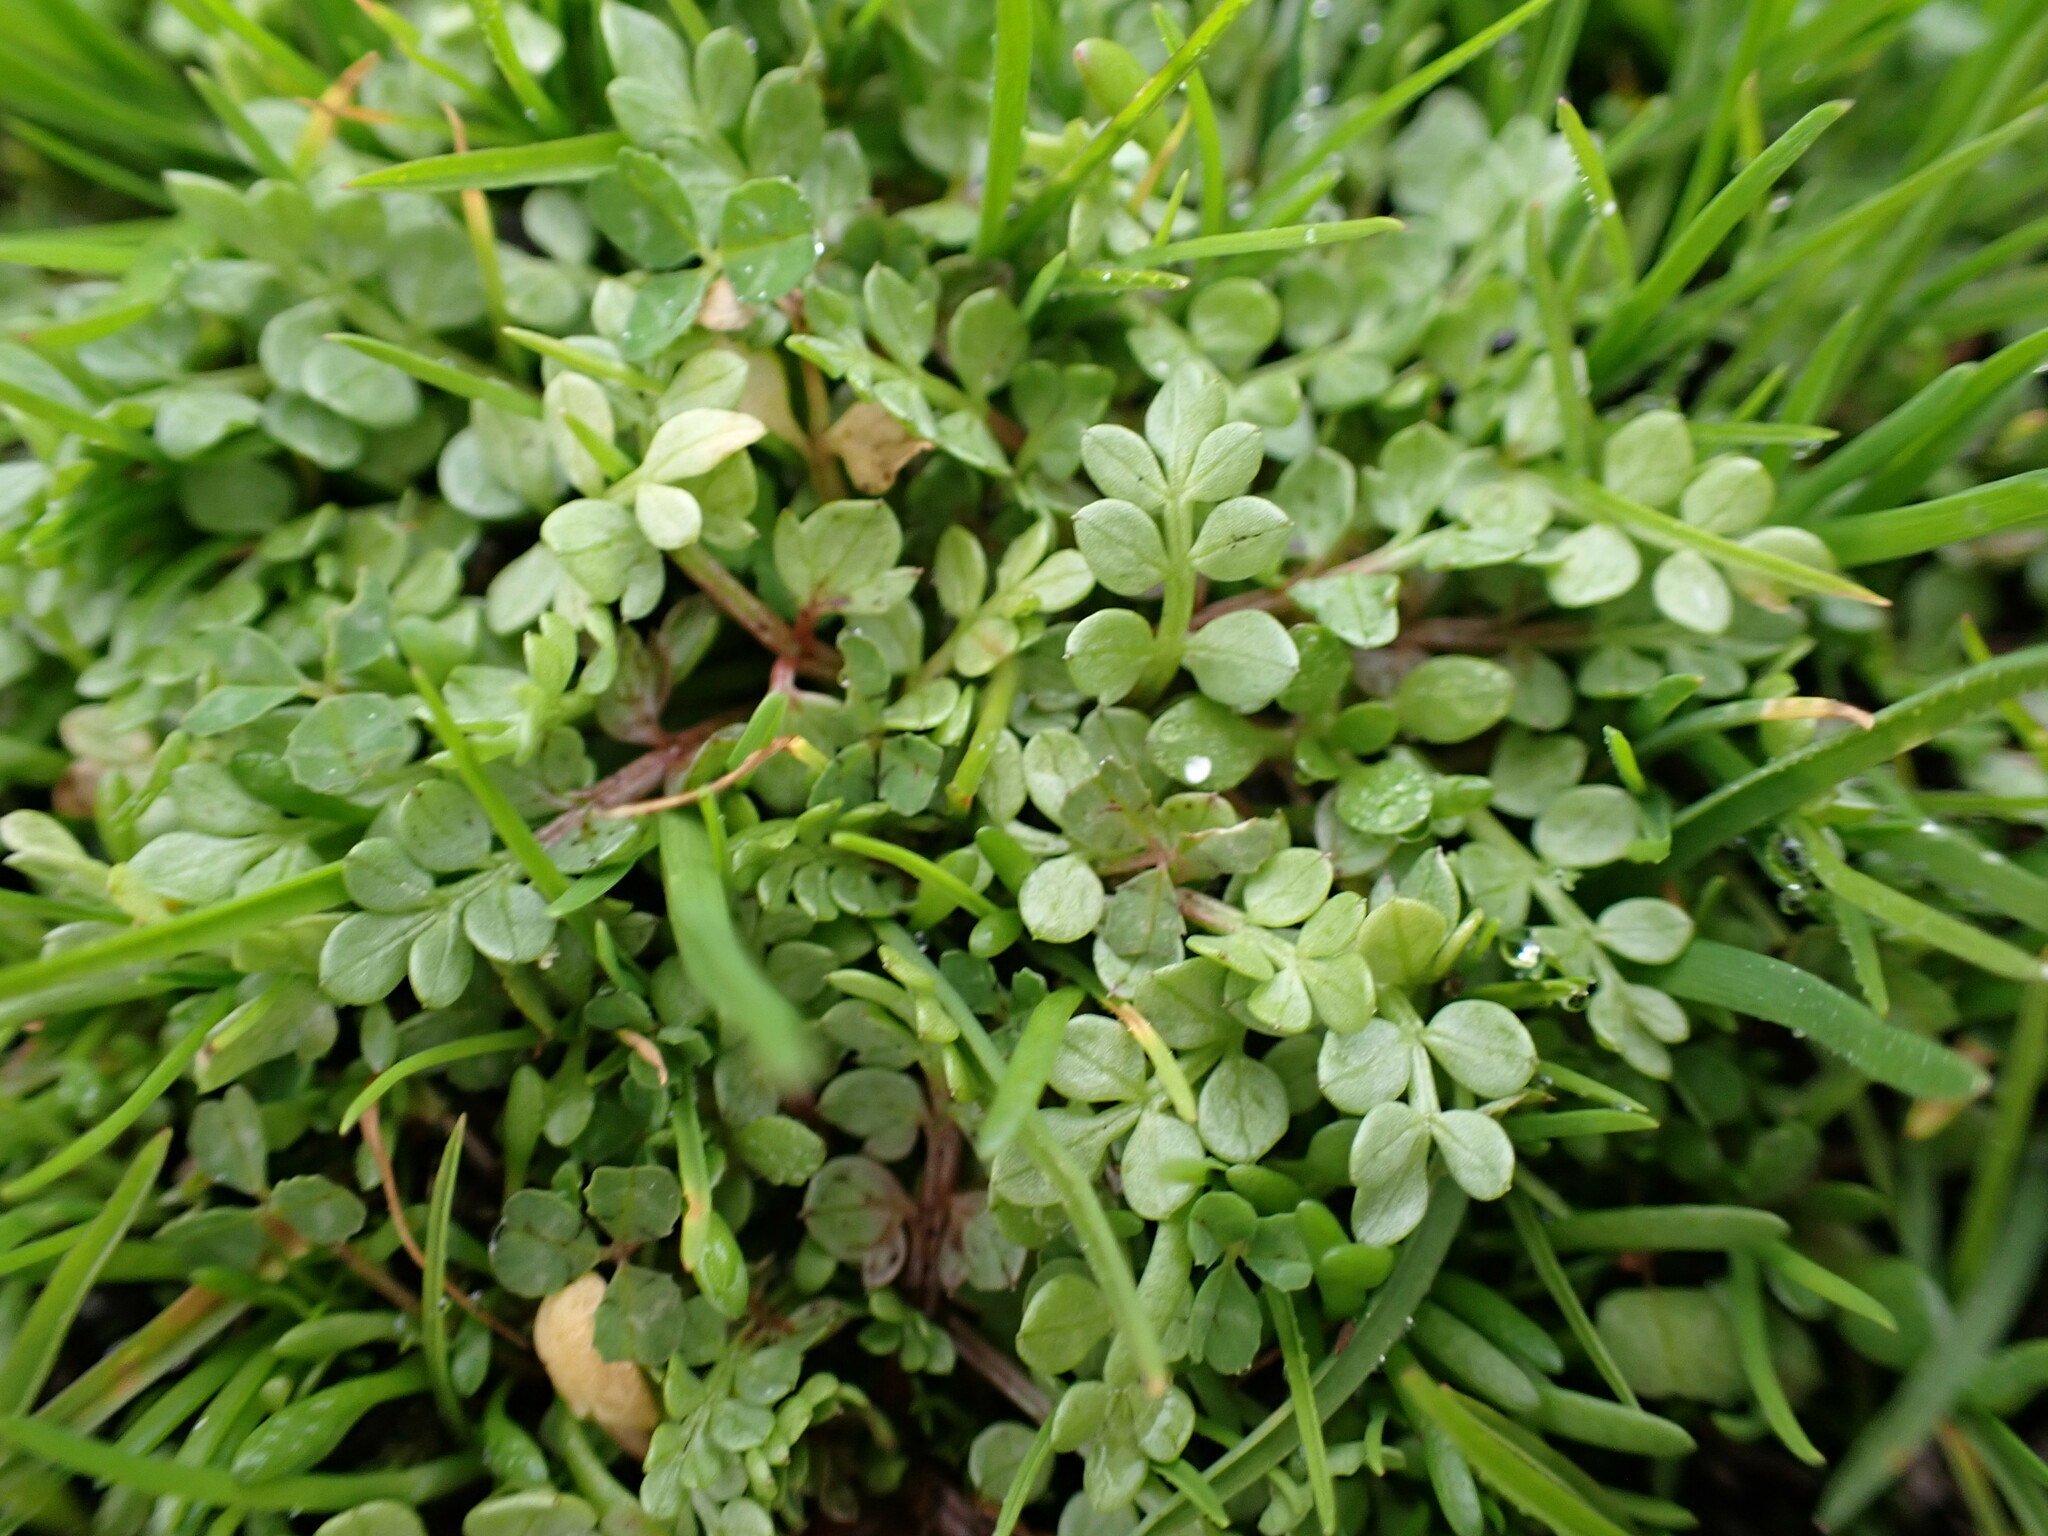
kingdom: Plantae
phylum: Tracheophyta
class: Magnoliopsida
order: Brassicales
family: Limnanthaceae
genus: Limnanthes
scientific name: Limnanthes macounii
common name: Macoun's meadowfoam
